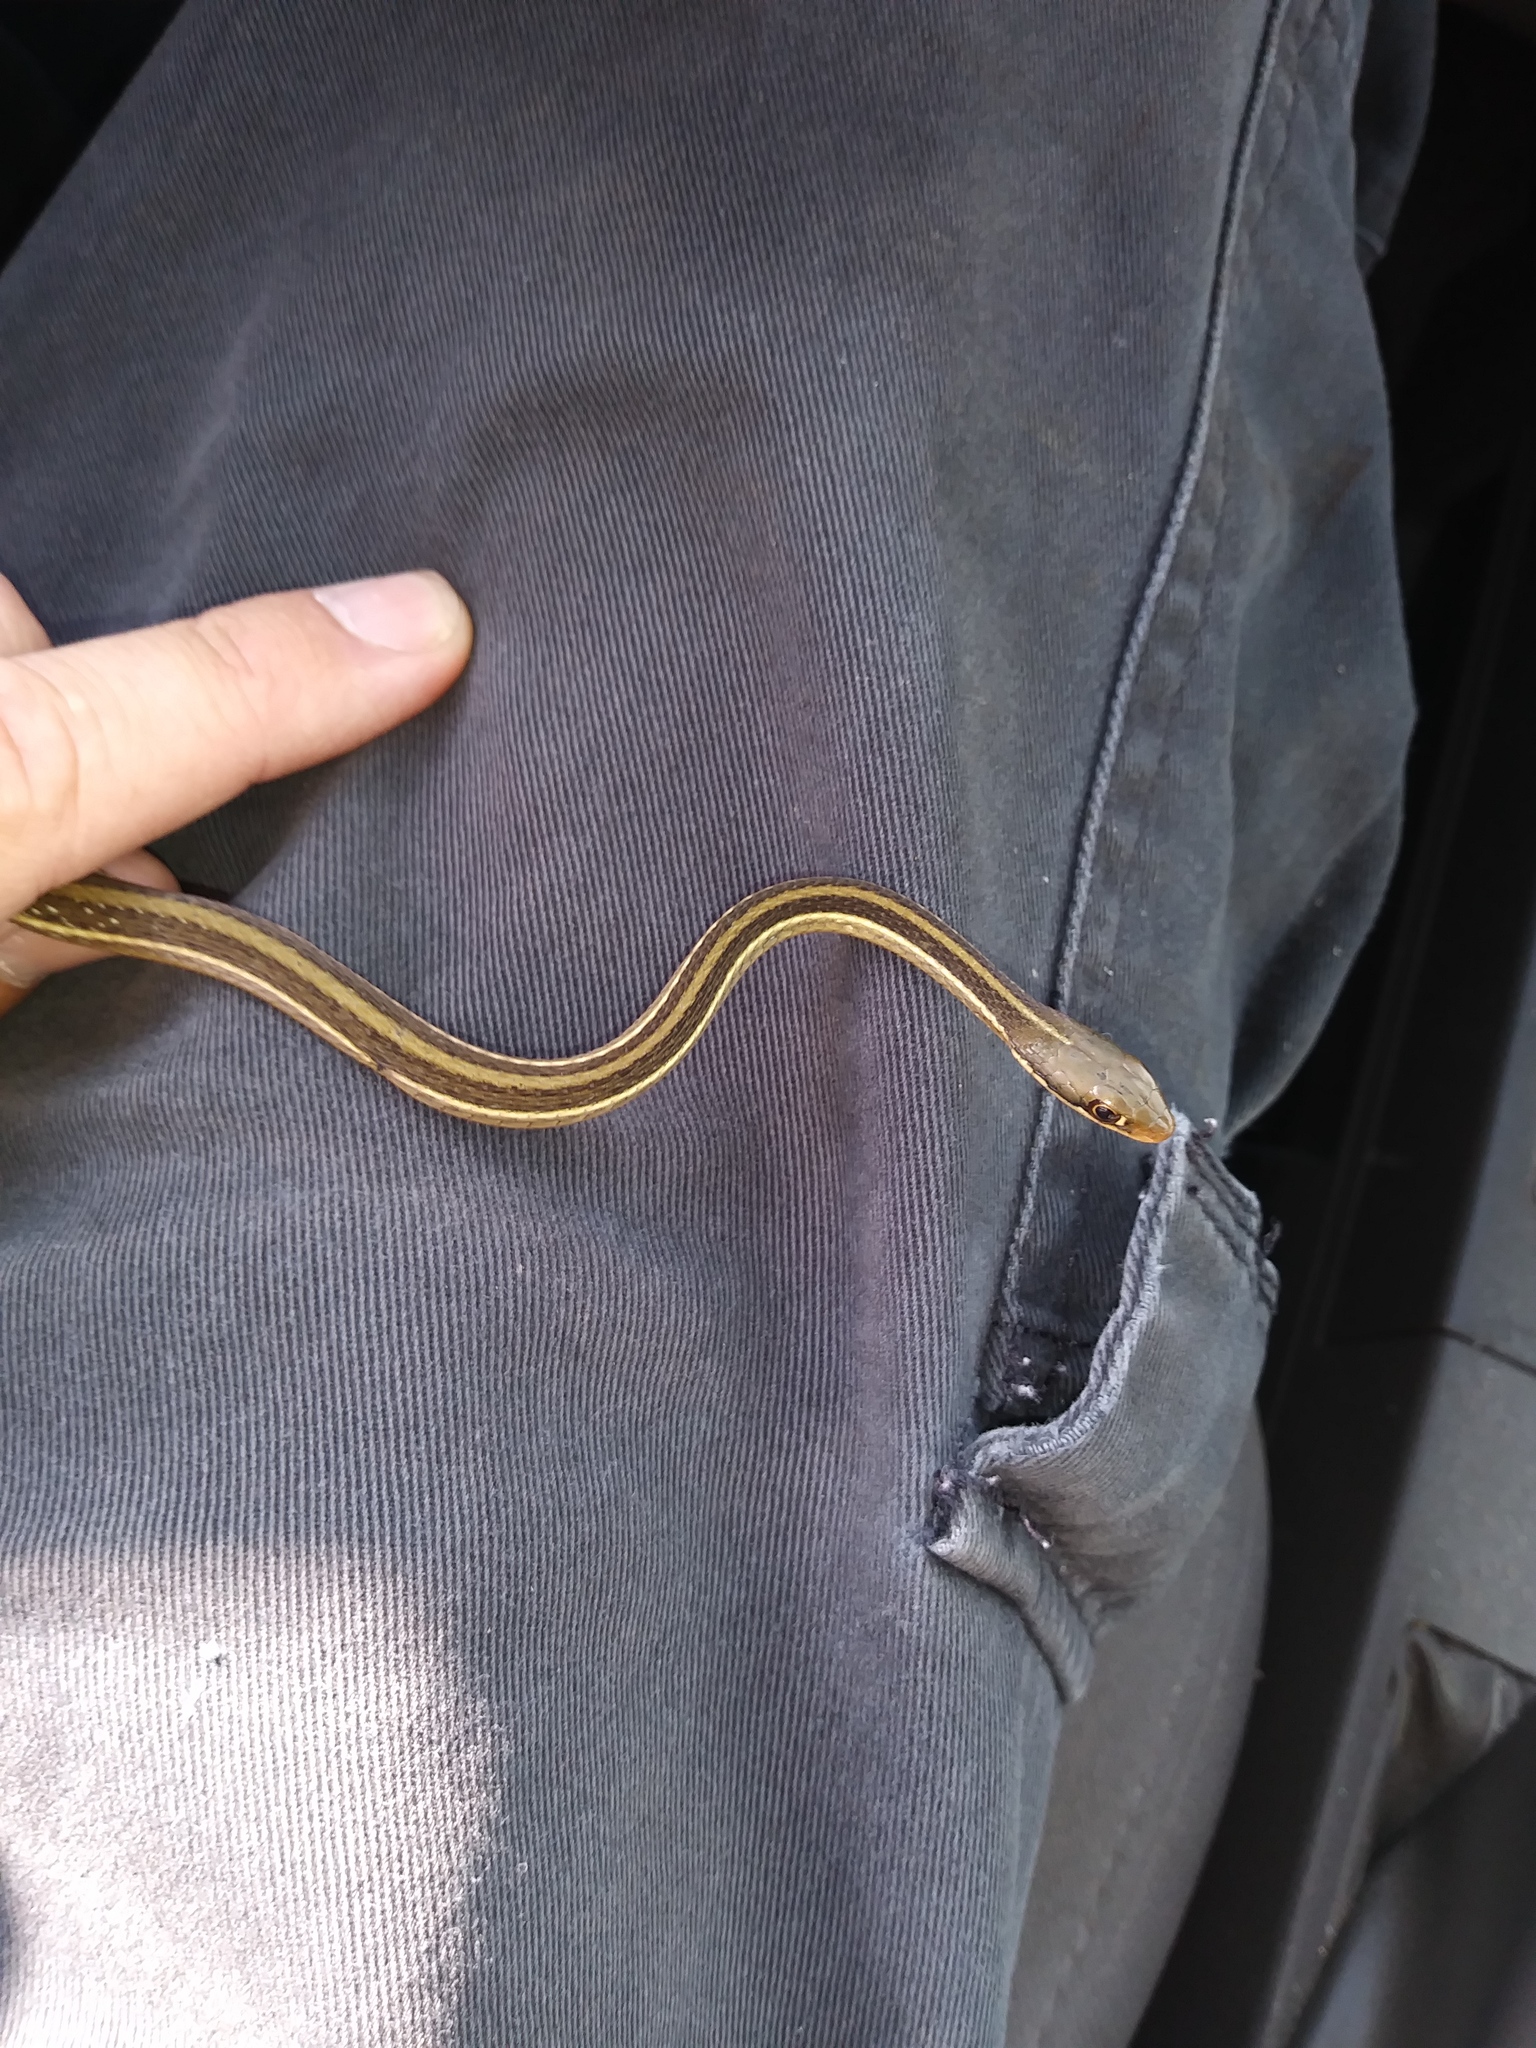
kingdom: Animalia
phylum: Chordata
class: Squamata
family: Colubridae
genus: Thamnophis
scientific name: Thamnophis saurita
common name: Eastern ribbonsnake
